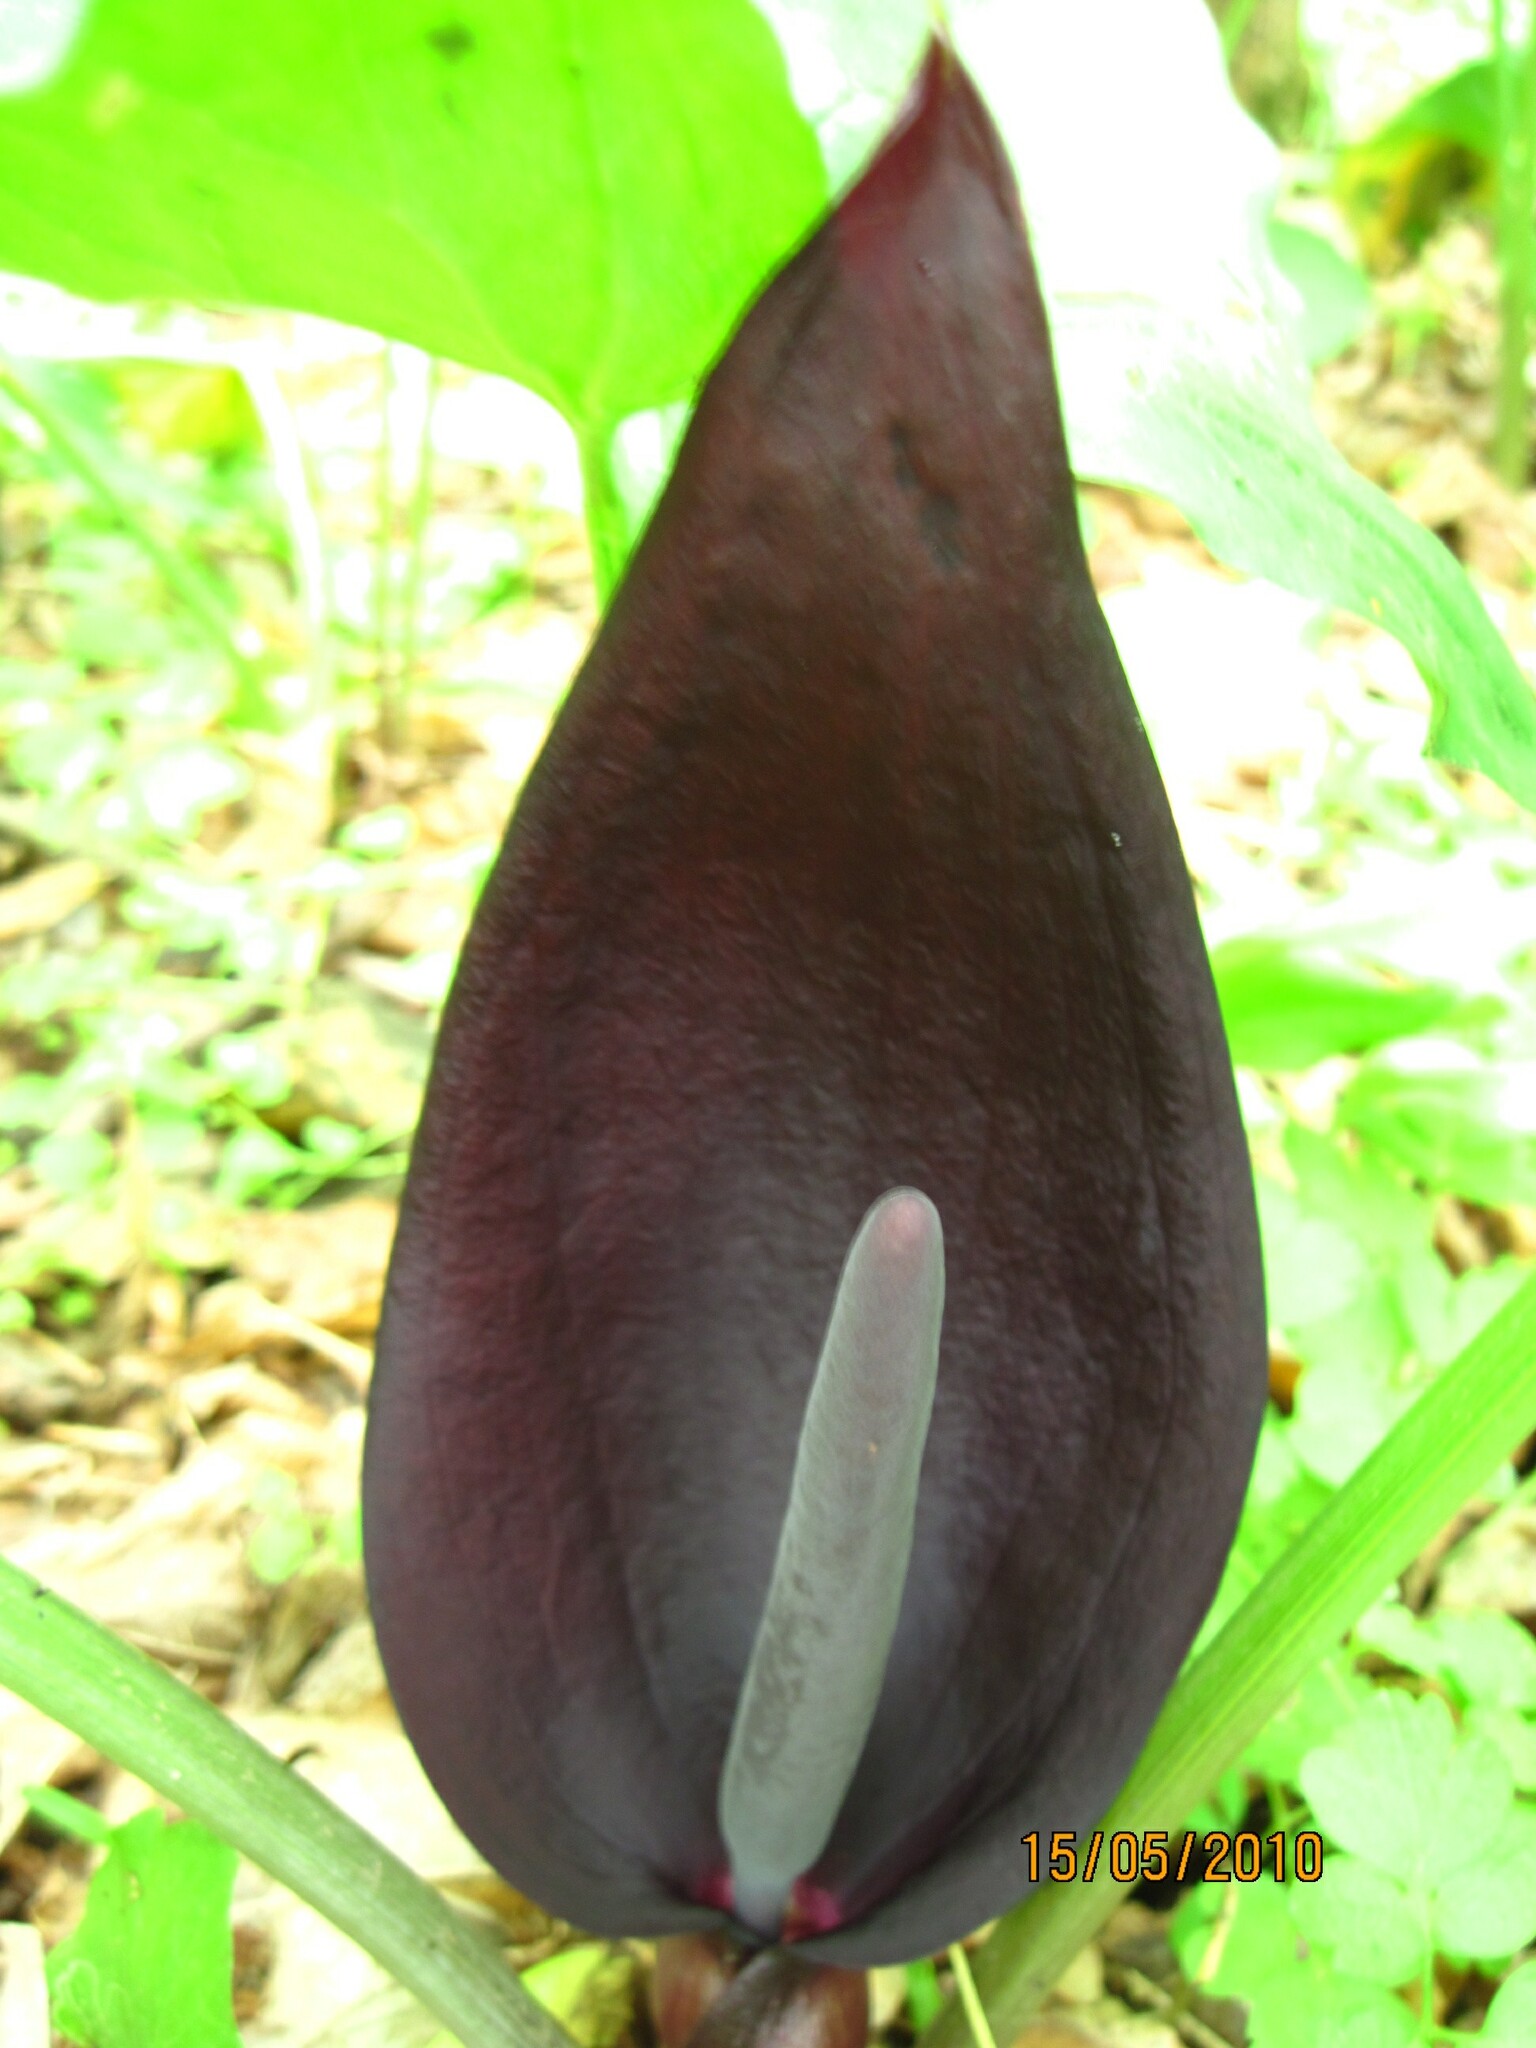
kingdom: Plantae
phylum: Tracheophyta
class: Liliopsida
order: Alismatales
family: Araceae
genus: Arum
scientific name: Arum orientale
